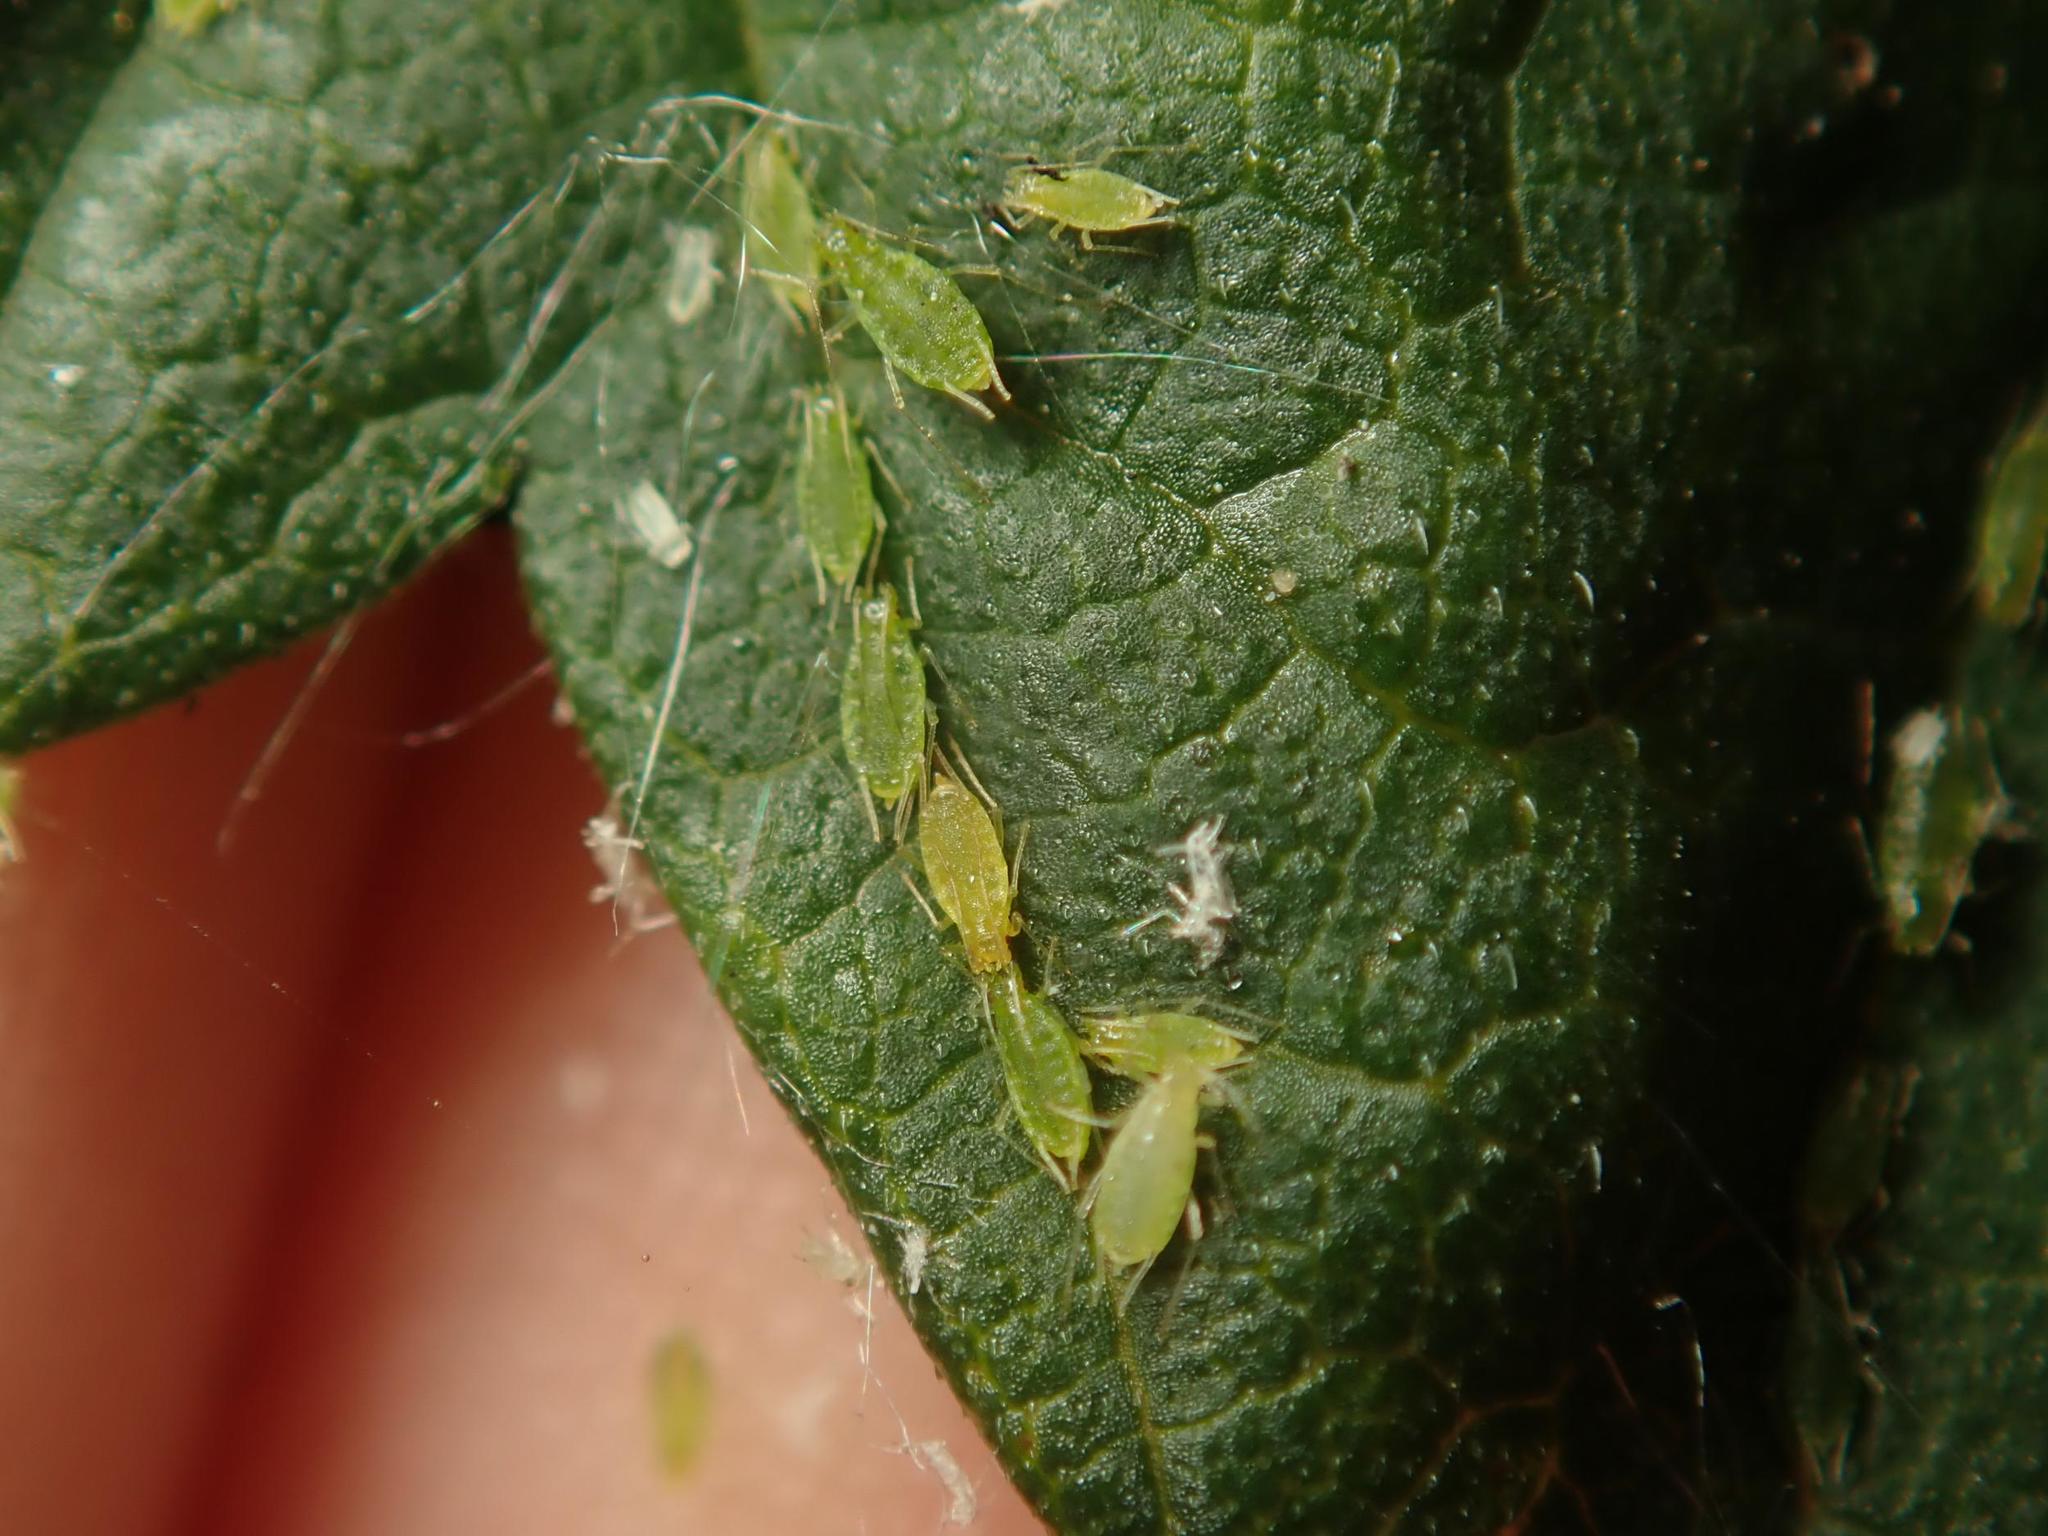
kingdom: Animalia
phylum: Arthropoda
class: Insecta
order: Hemiptera
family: Aphididae
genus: Phorodon
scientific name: Phorodon humuli
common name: Hop aphid
